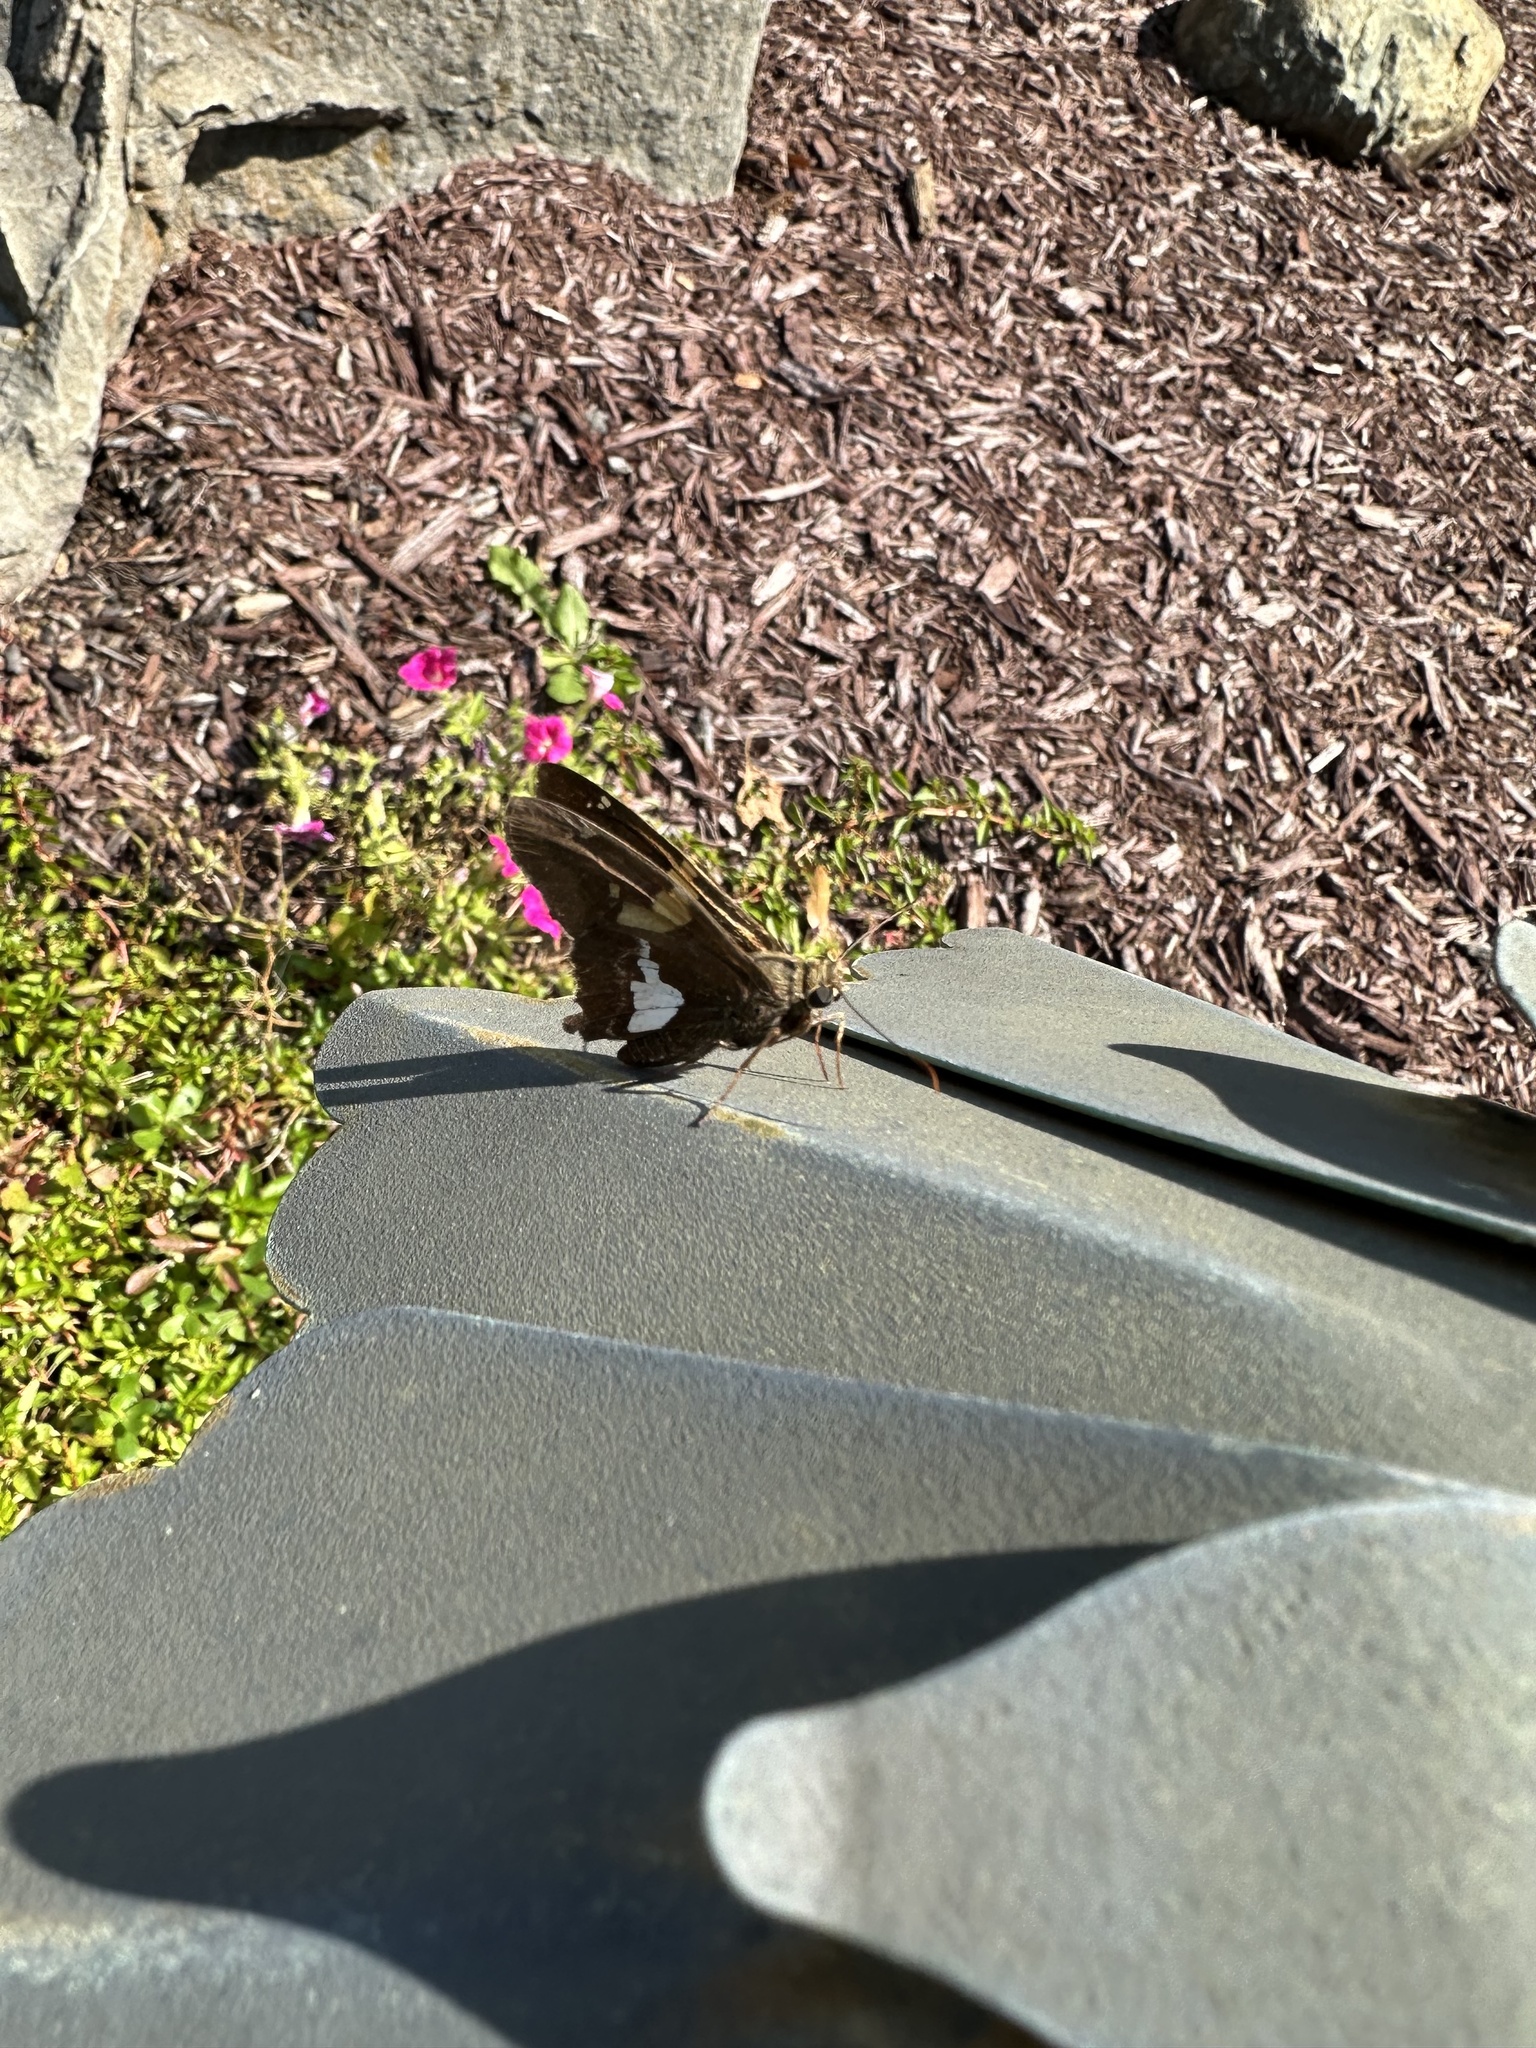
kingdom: Animalia
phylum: Arthropoda
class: Insecta
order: Lepidoptera
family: Hesperiidae
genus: Epargyreus
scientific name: Epargyreus clarus
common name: Silver-spotted skipper
